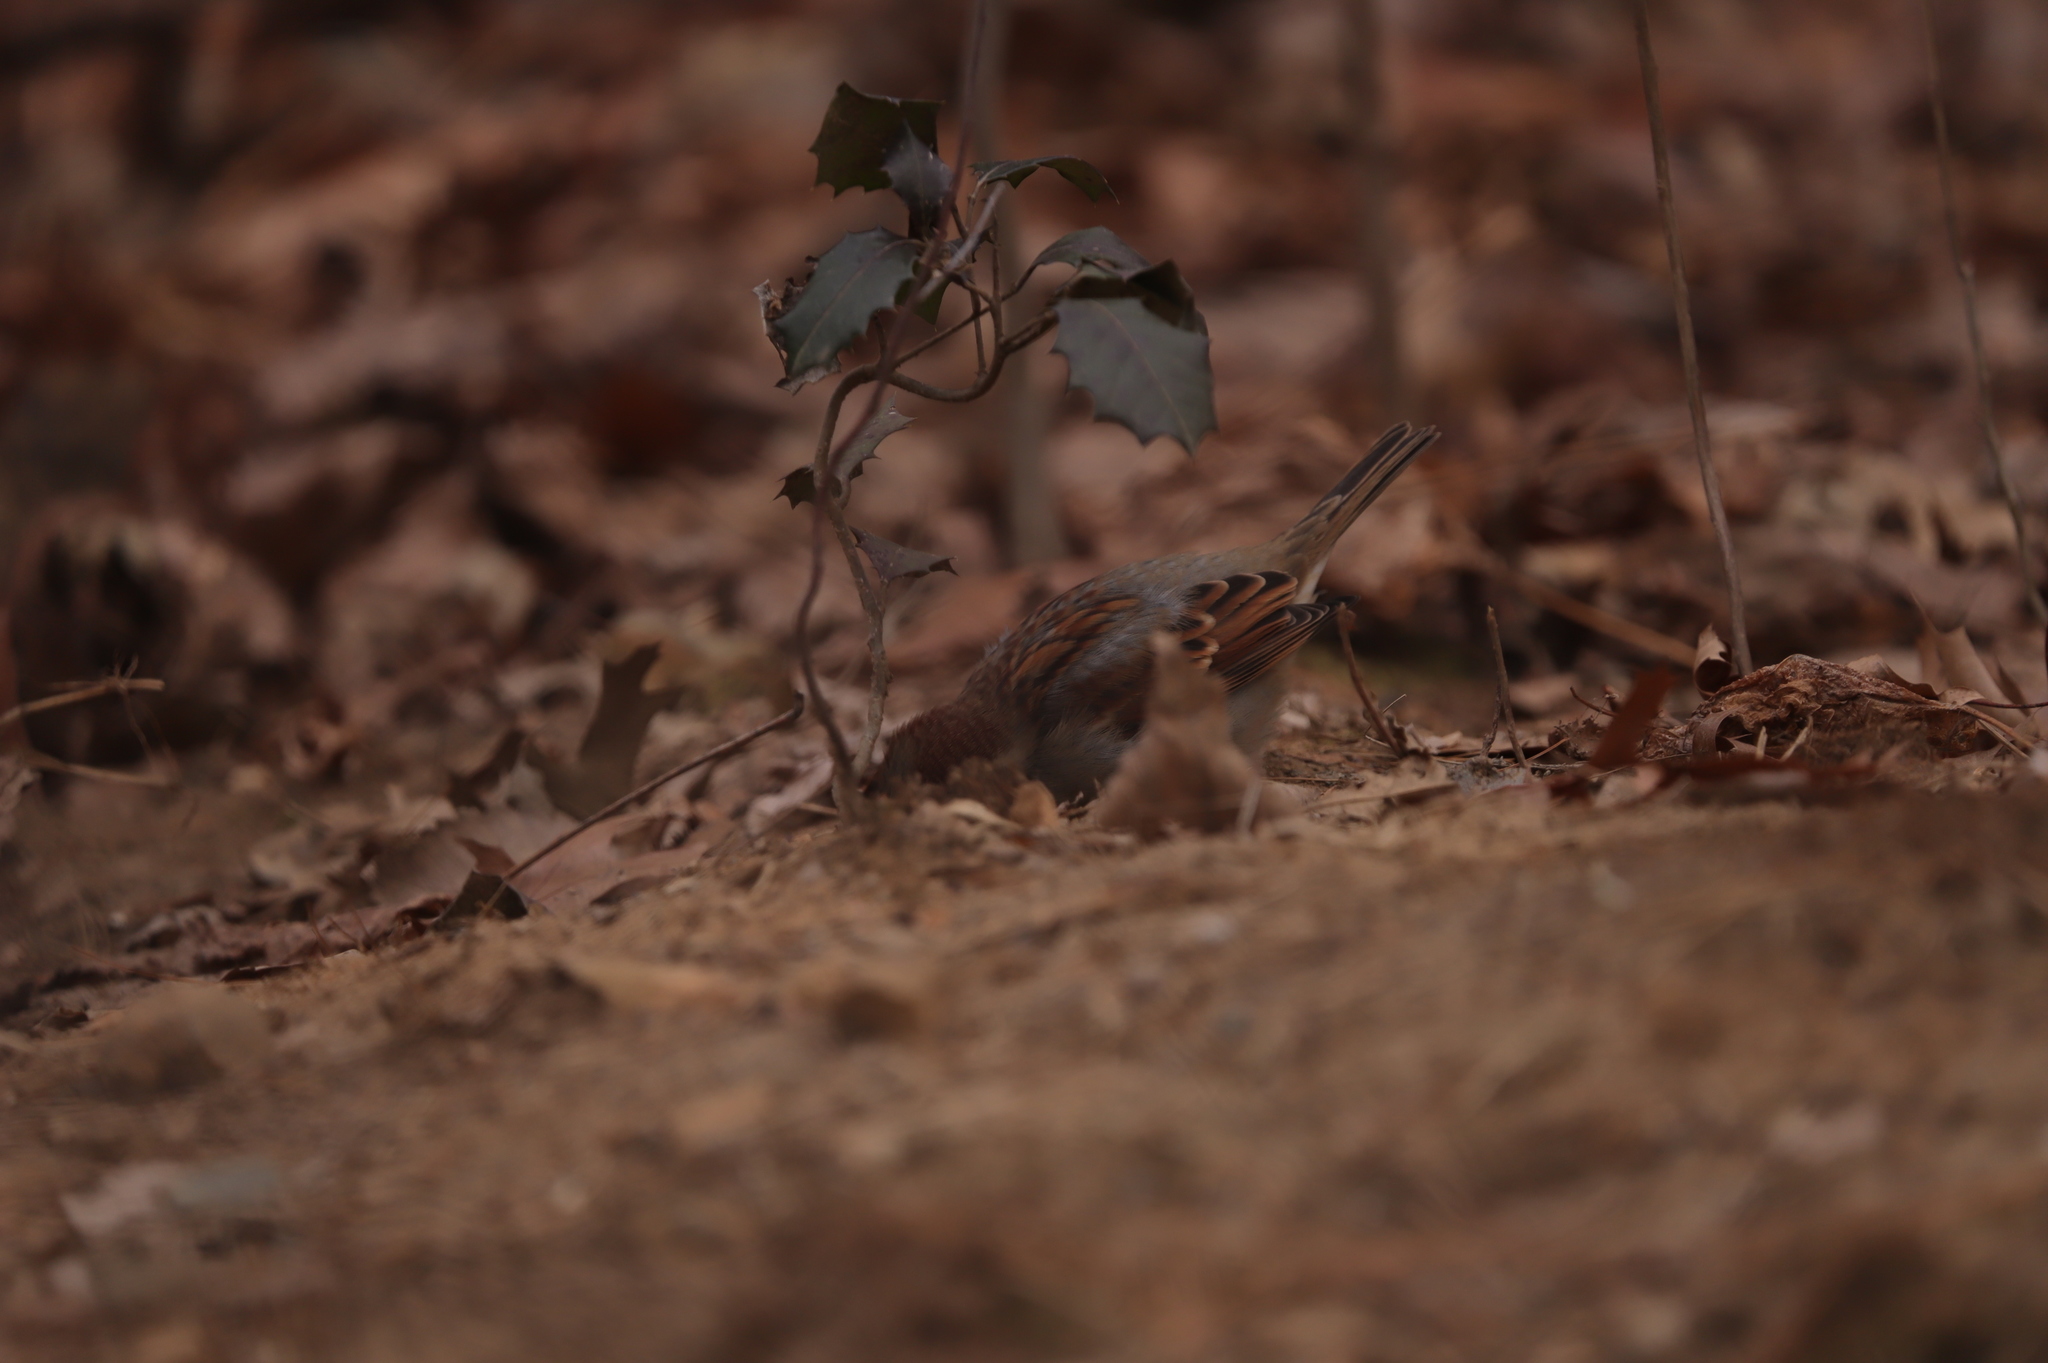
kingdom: Animalia
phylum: Chordata
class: Aves
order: Passeriformes
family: Sittidae
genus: Sitta
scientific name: Sitta carolinensis
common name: White-breasted nuthatch
